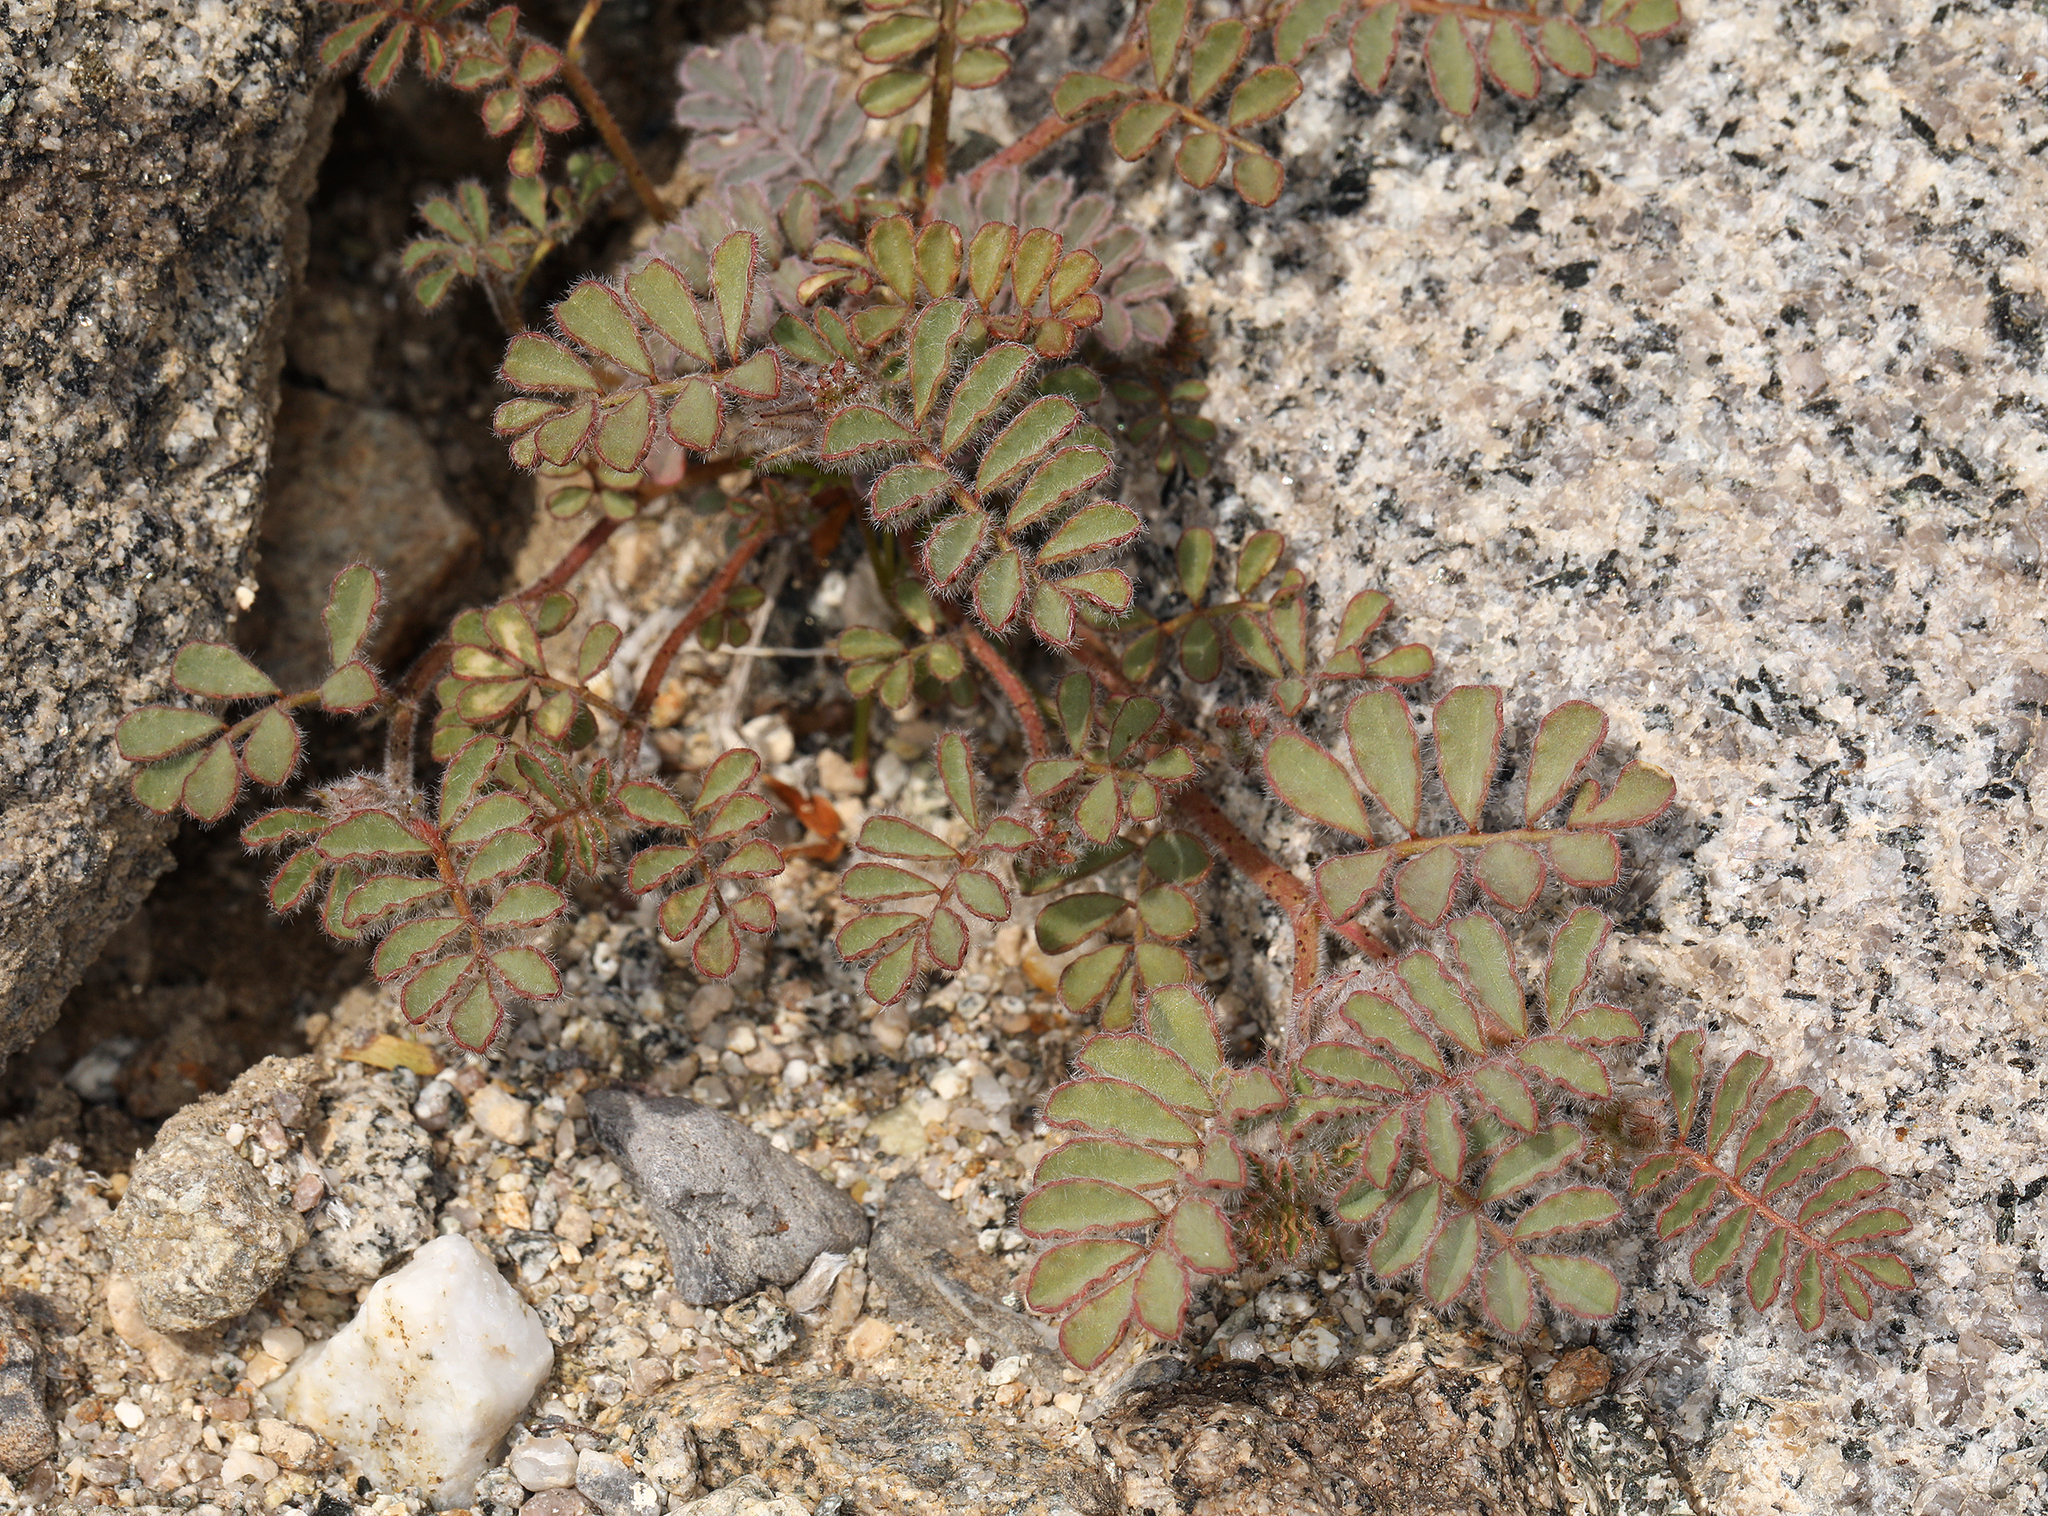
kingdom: Plantae
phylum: Tracheophyta
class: Magnoliopsida
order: Fabales
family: Fabaceae
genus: Dalea
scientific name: Dalea mollissima
